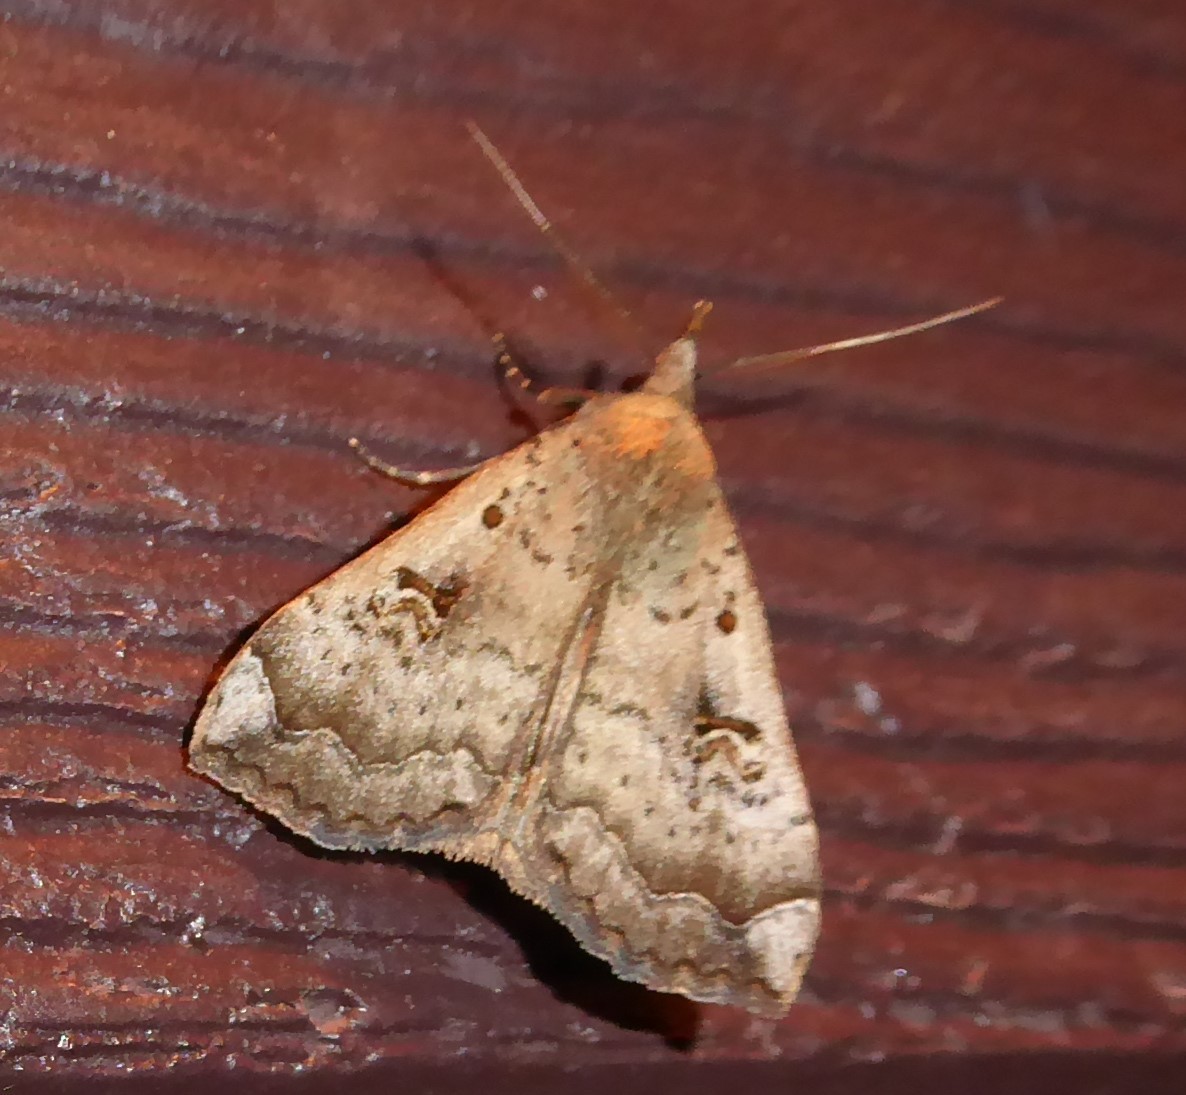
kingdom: Animalia
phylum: Arthropoda
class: Insecta
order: Lepidoptera
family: Erebidae
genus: Rhapsa
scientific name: Rhapsa scotosialis
